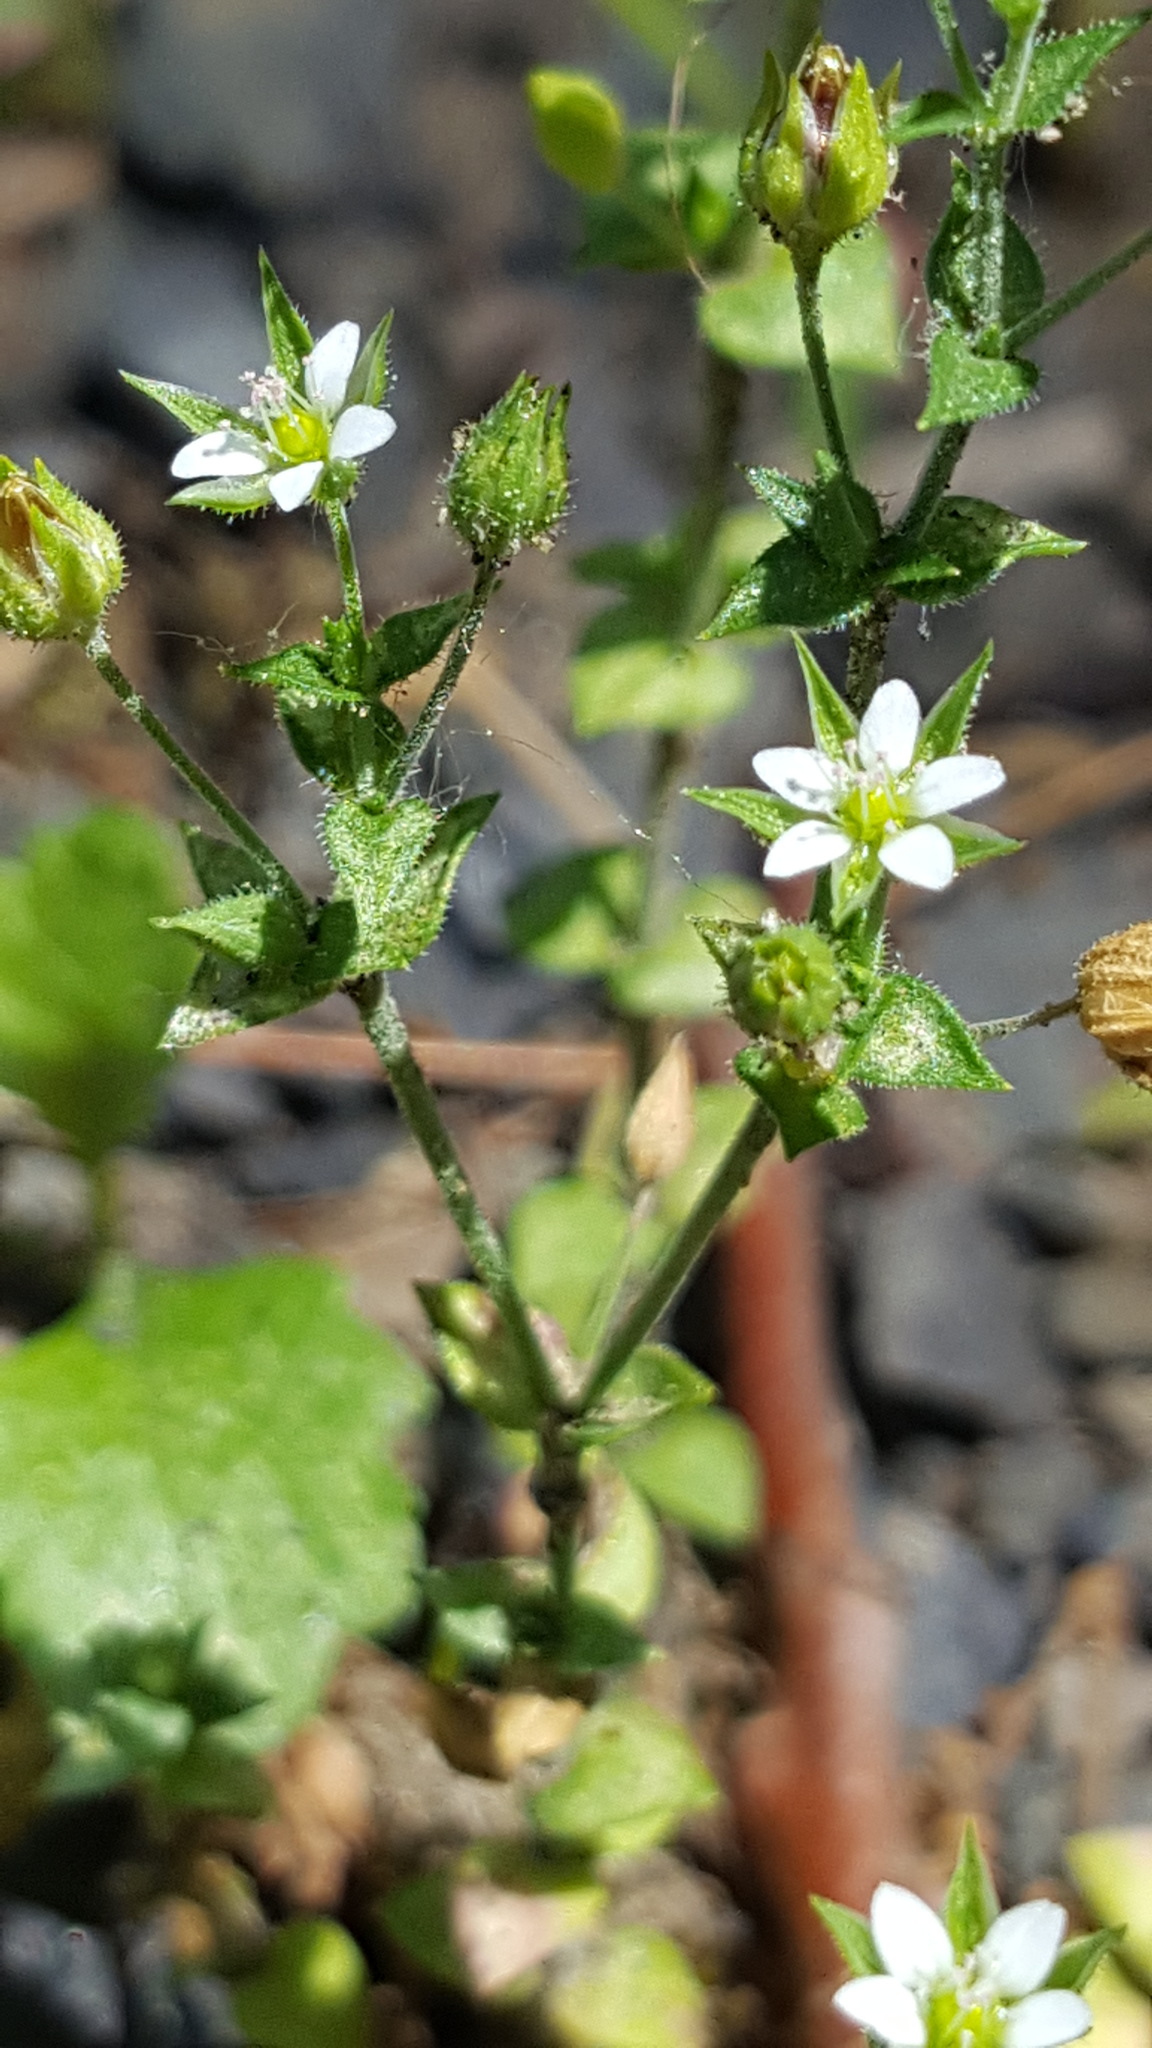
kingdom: Plantae
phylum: Tracheophyta
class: Magnoliopsida
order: Caryophyllales
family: Caryophyllaceae
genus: Arenaria
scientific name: Arenaria serpyllifolia
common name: Thyme-leaved sandwort
